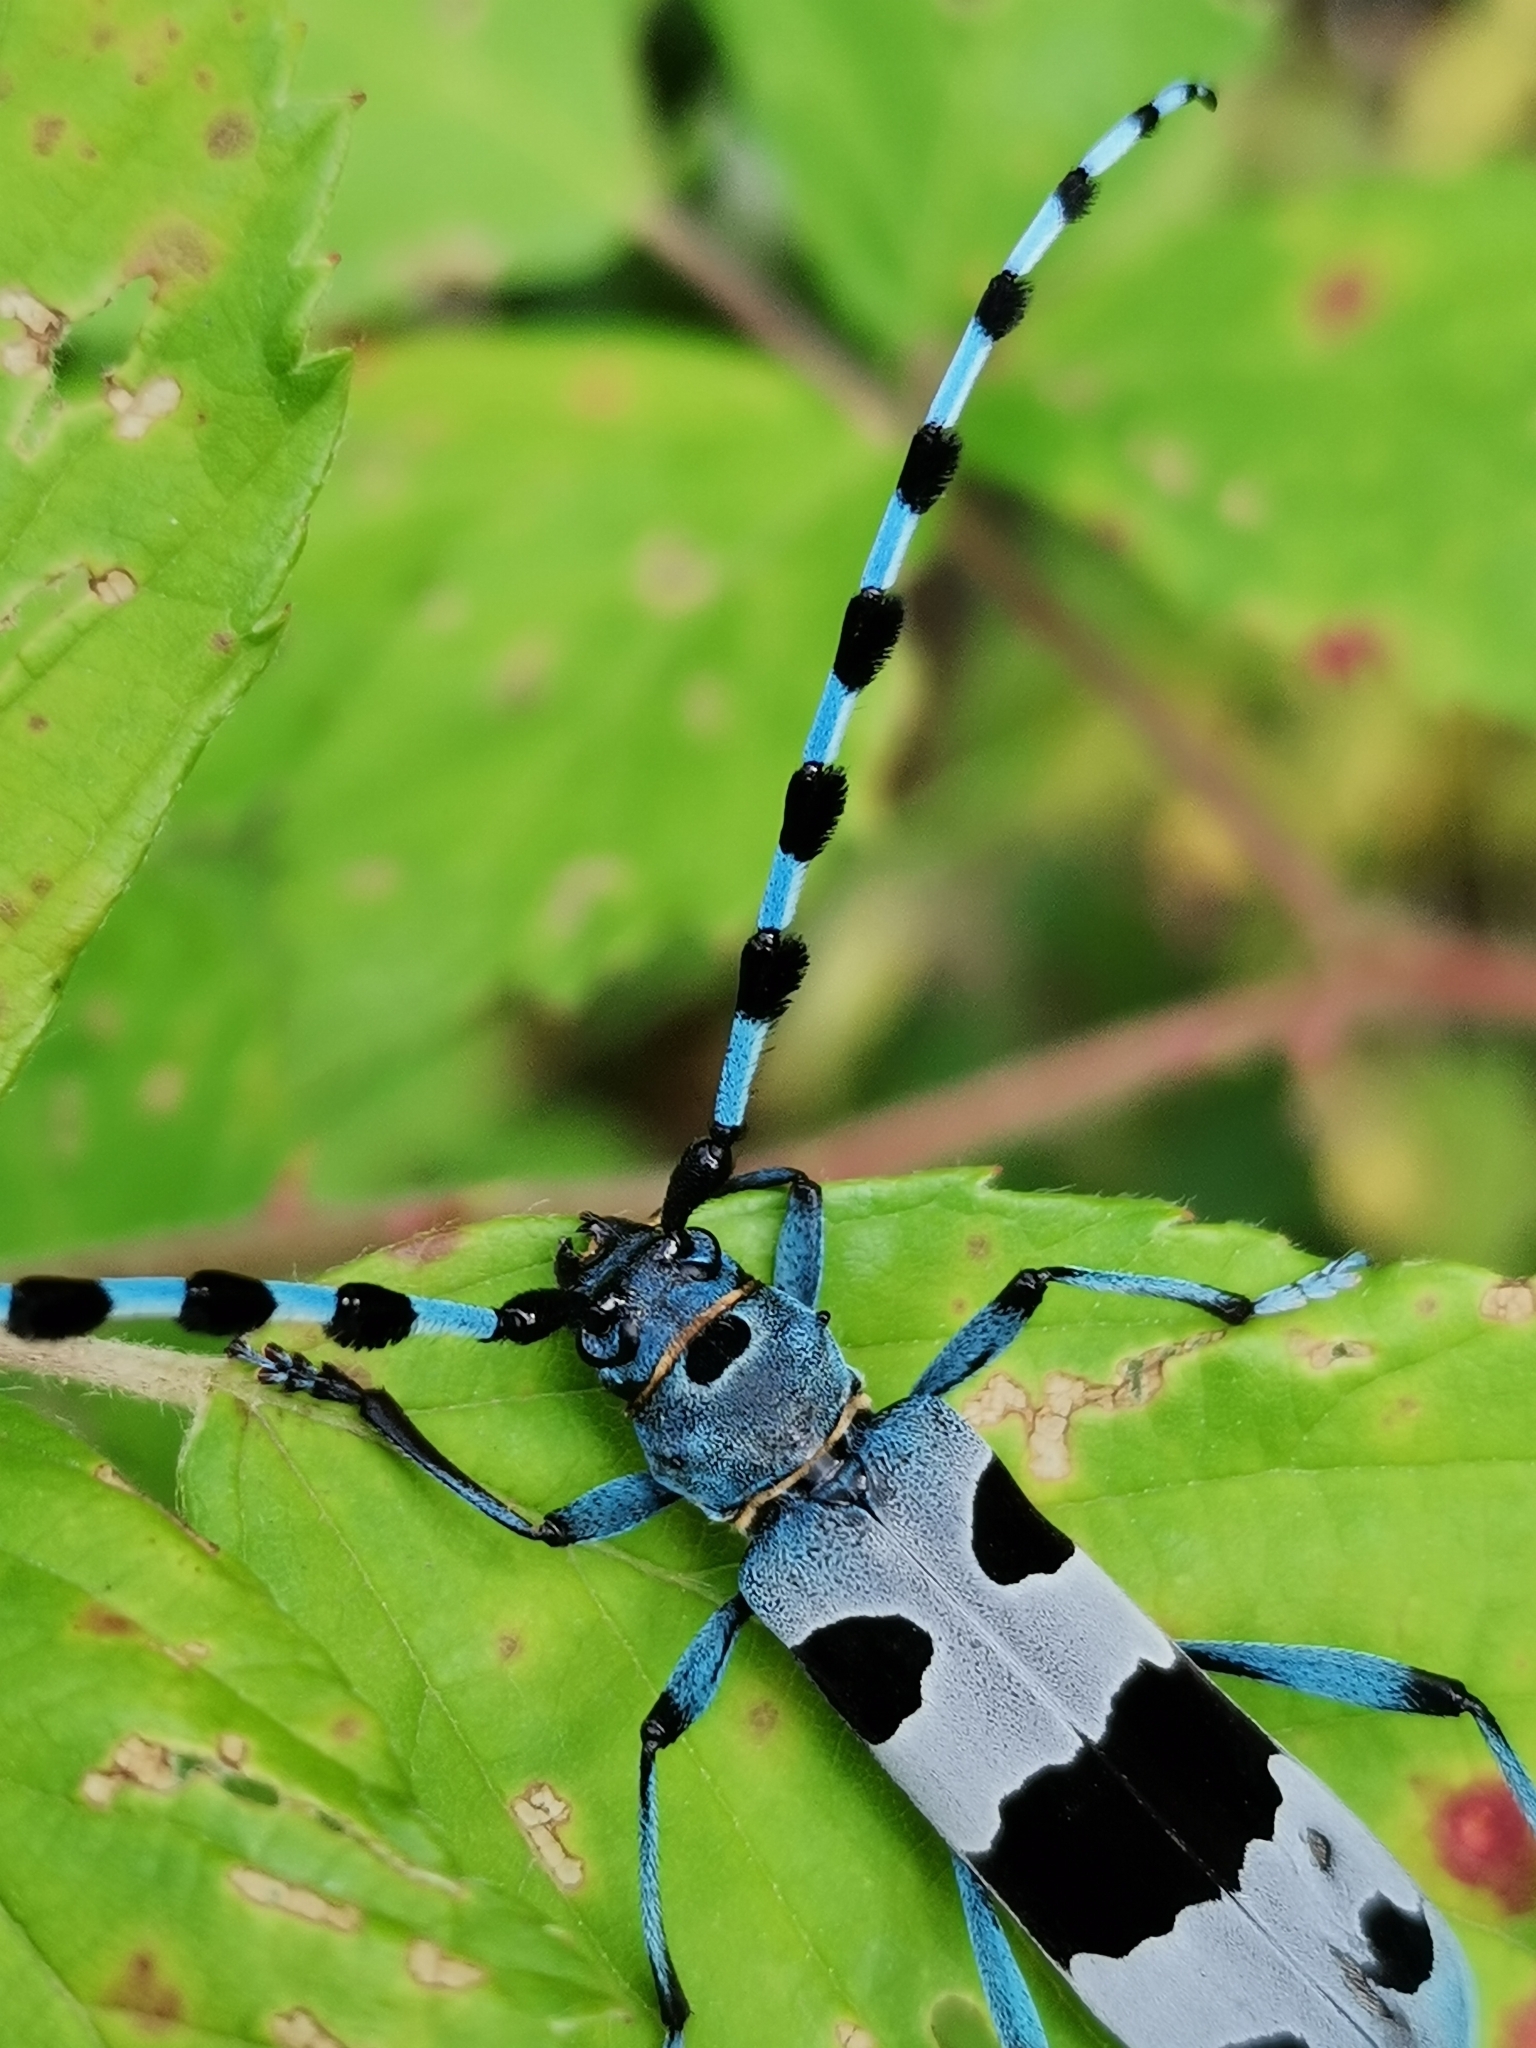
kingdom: Animalia
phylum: Arthropoda
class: Insecta
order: Coleoptera
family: Cerambycidae
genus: Rosalia
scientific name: Rosalia alpina
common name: Rosalia longicorn
